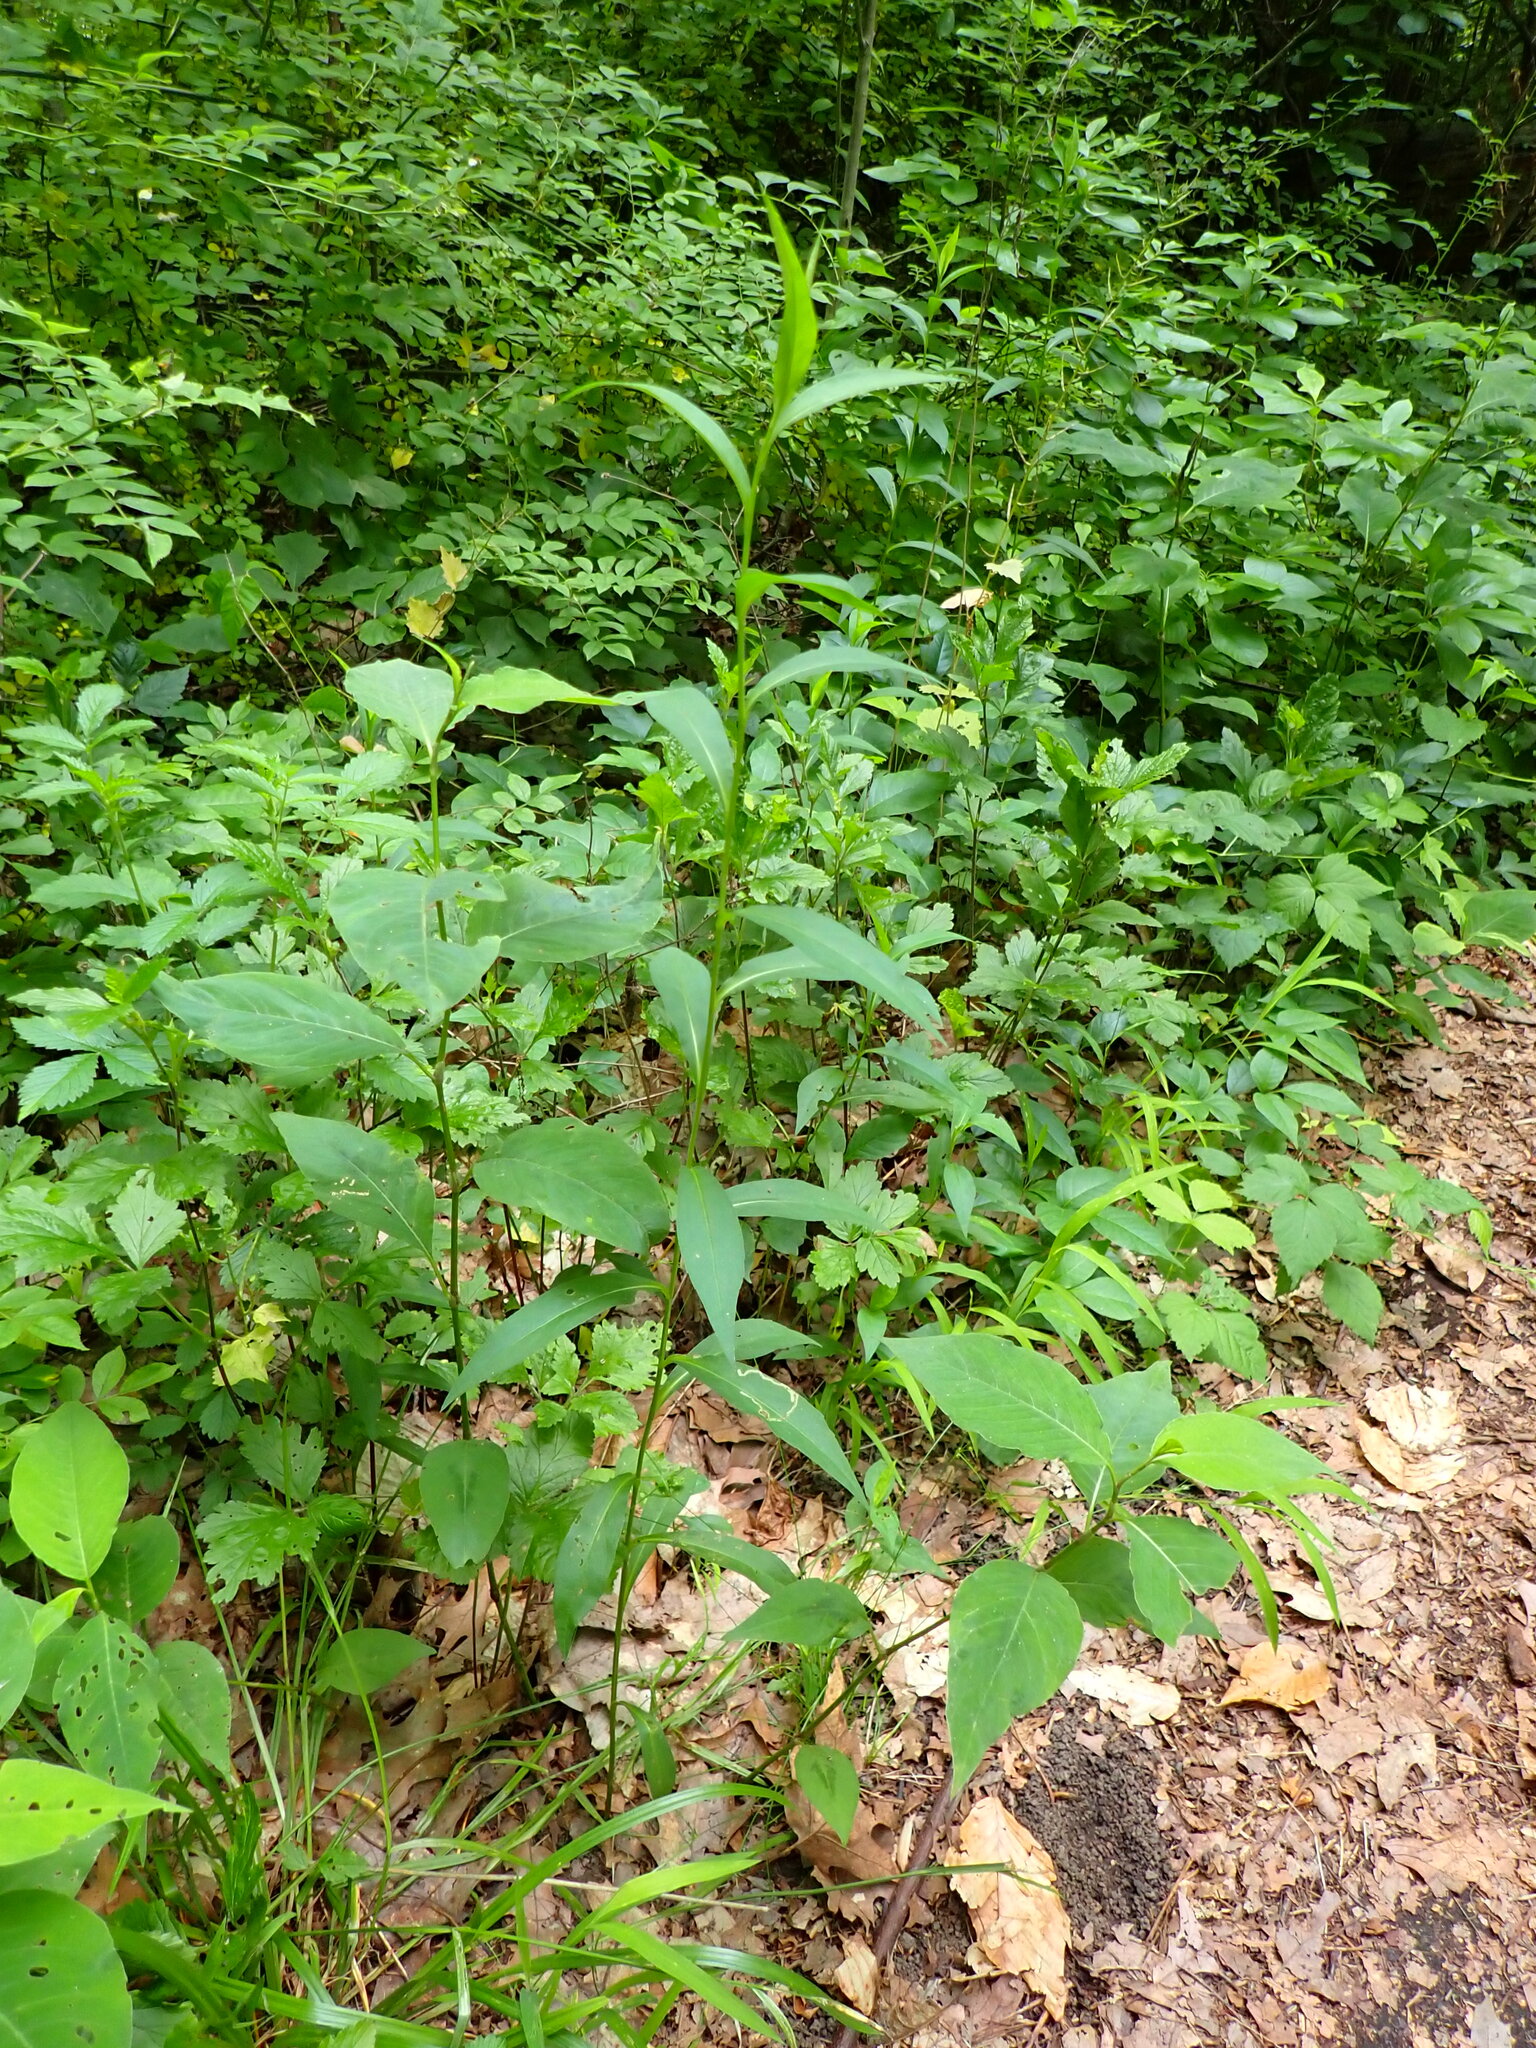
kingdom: Animalia
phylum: Arthropoda
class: Insecta
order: Diptera
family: Agromyzidae
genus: Liriomyza
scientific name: Liriomyza eupatorii
